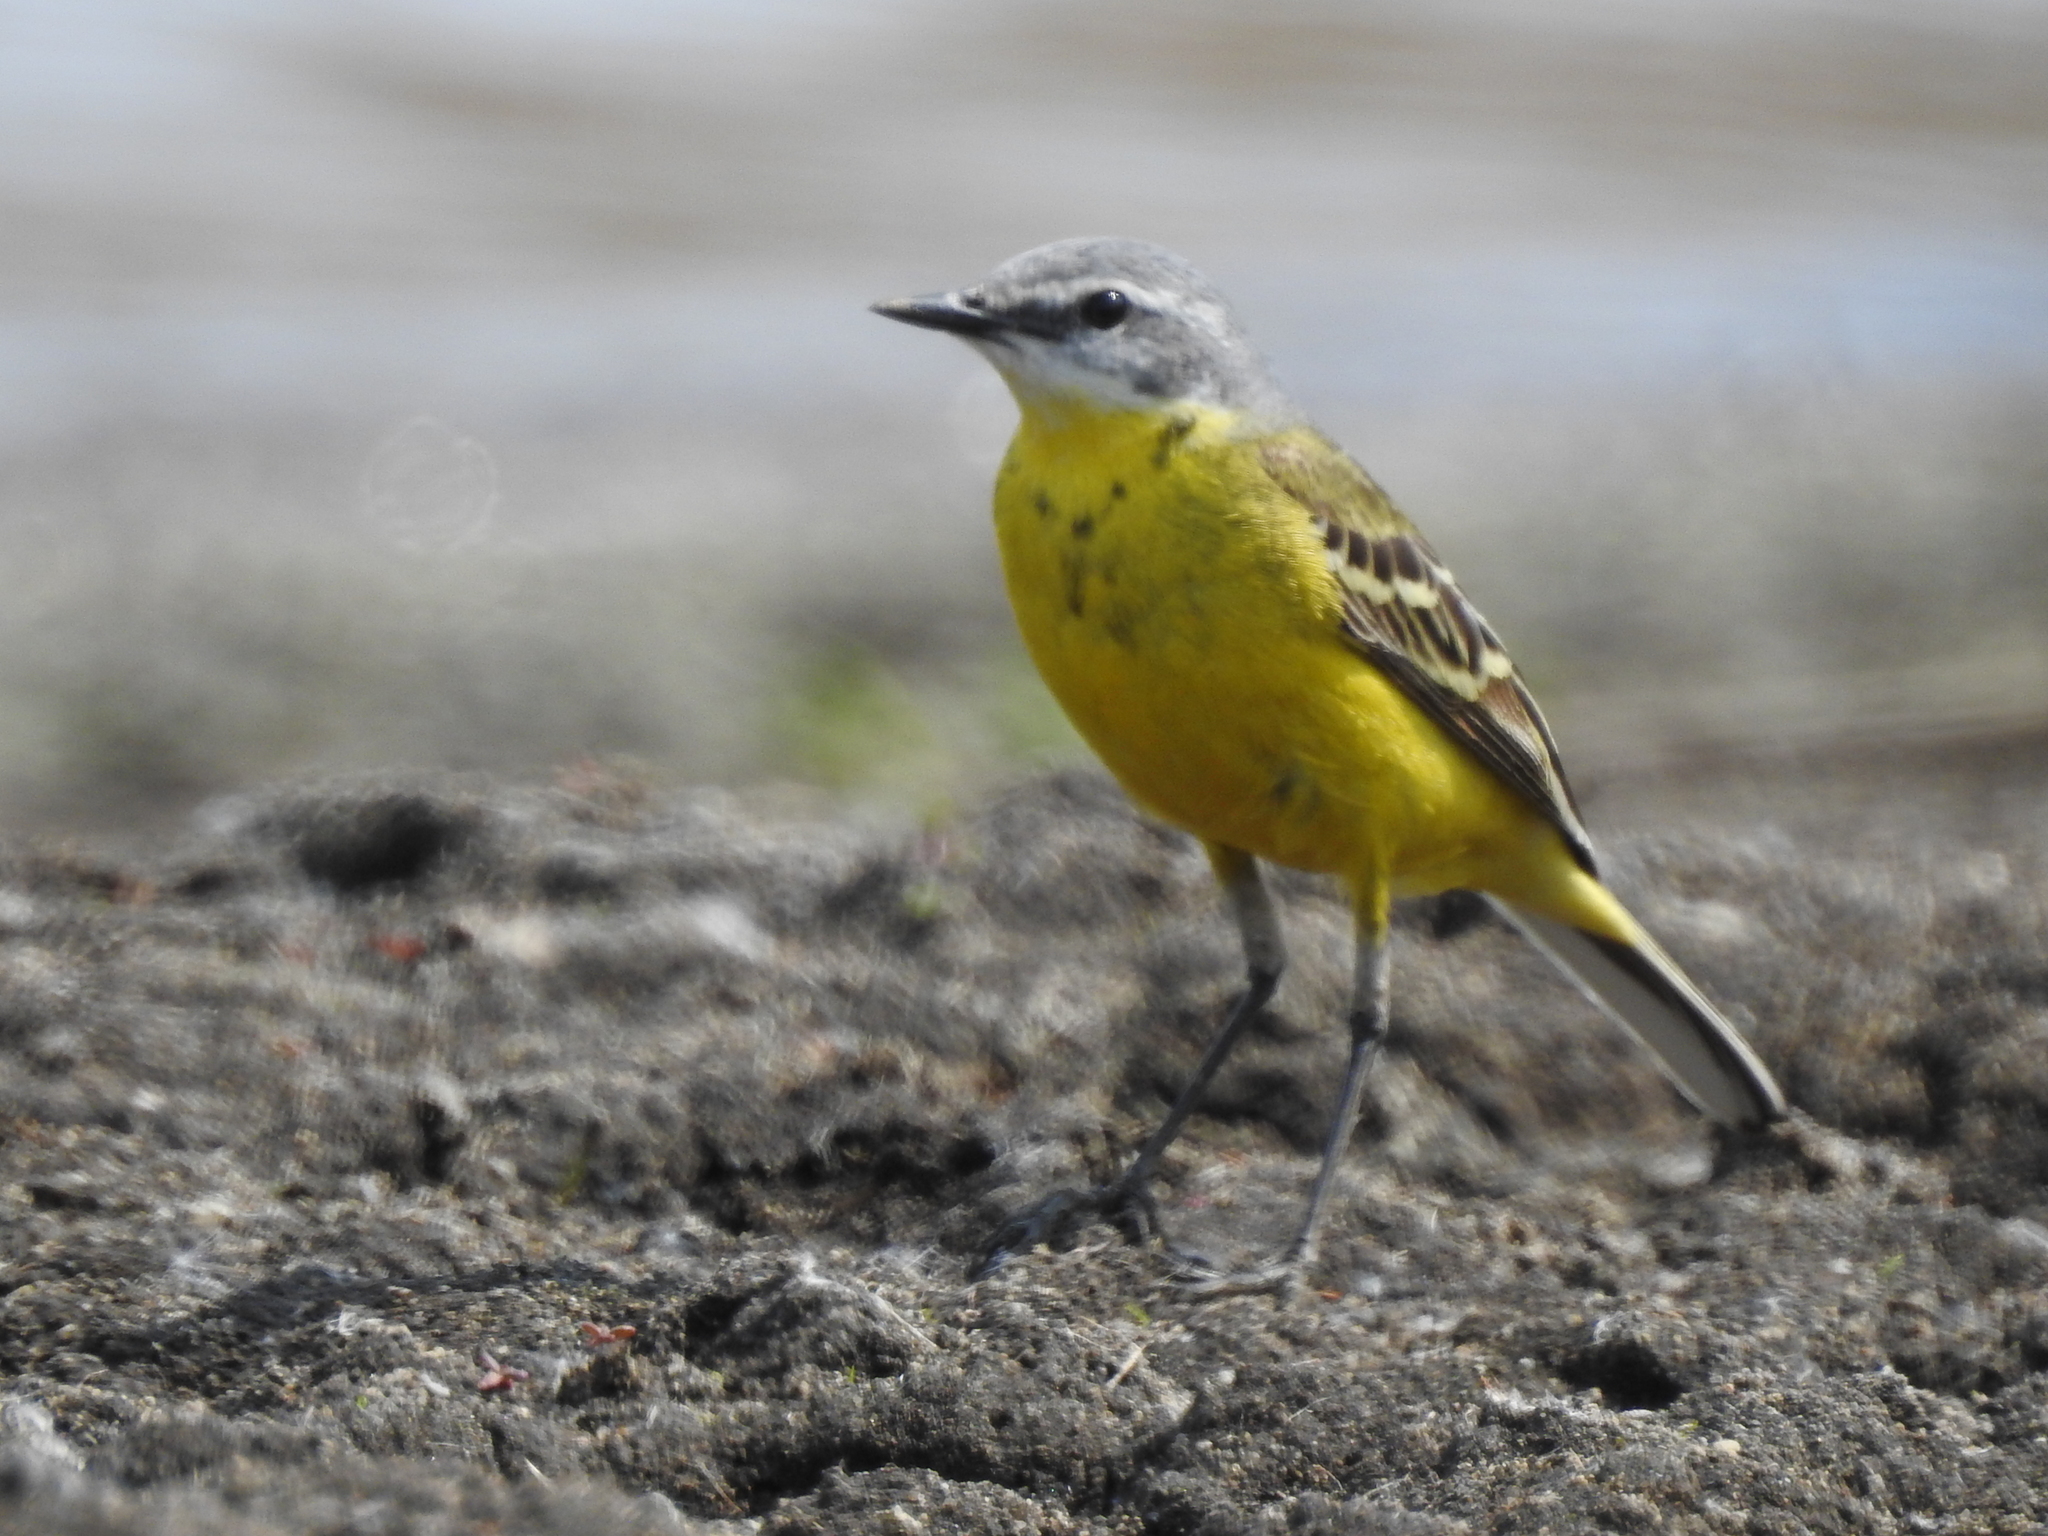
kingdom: Animalia
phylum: Chordata
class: Aves
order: Passeriformes
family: Motacillidae
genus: Motacilla
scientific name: Motacilla flava
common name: Western yellow wagtail
